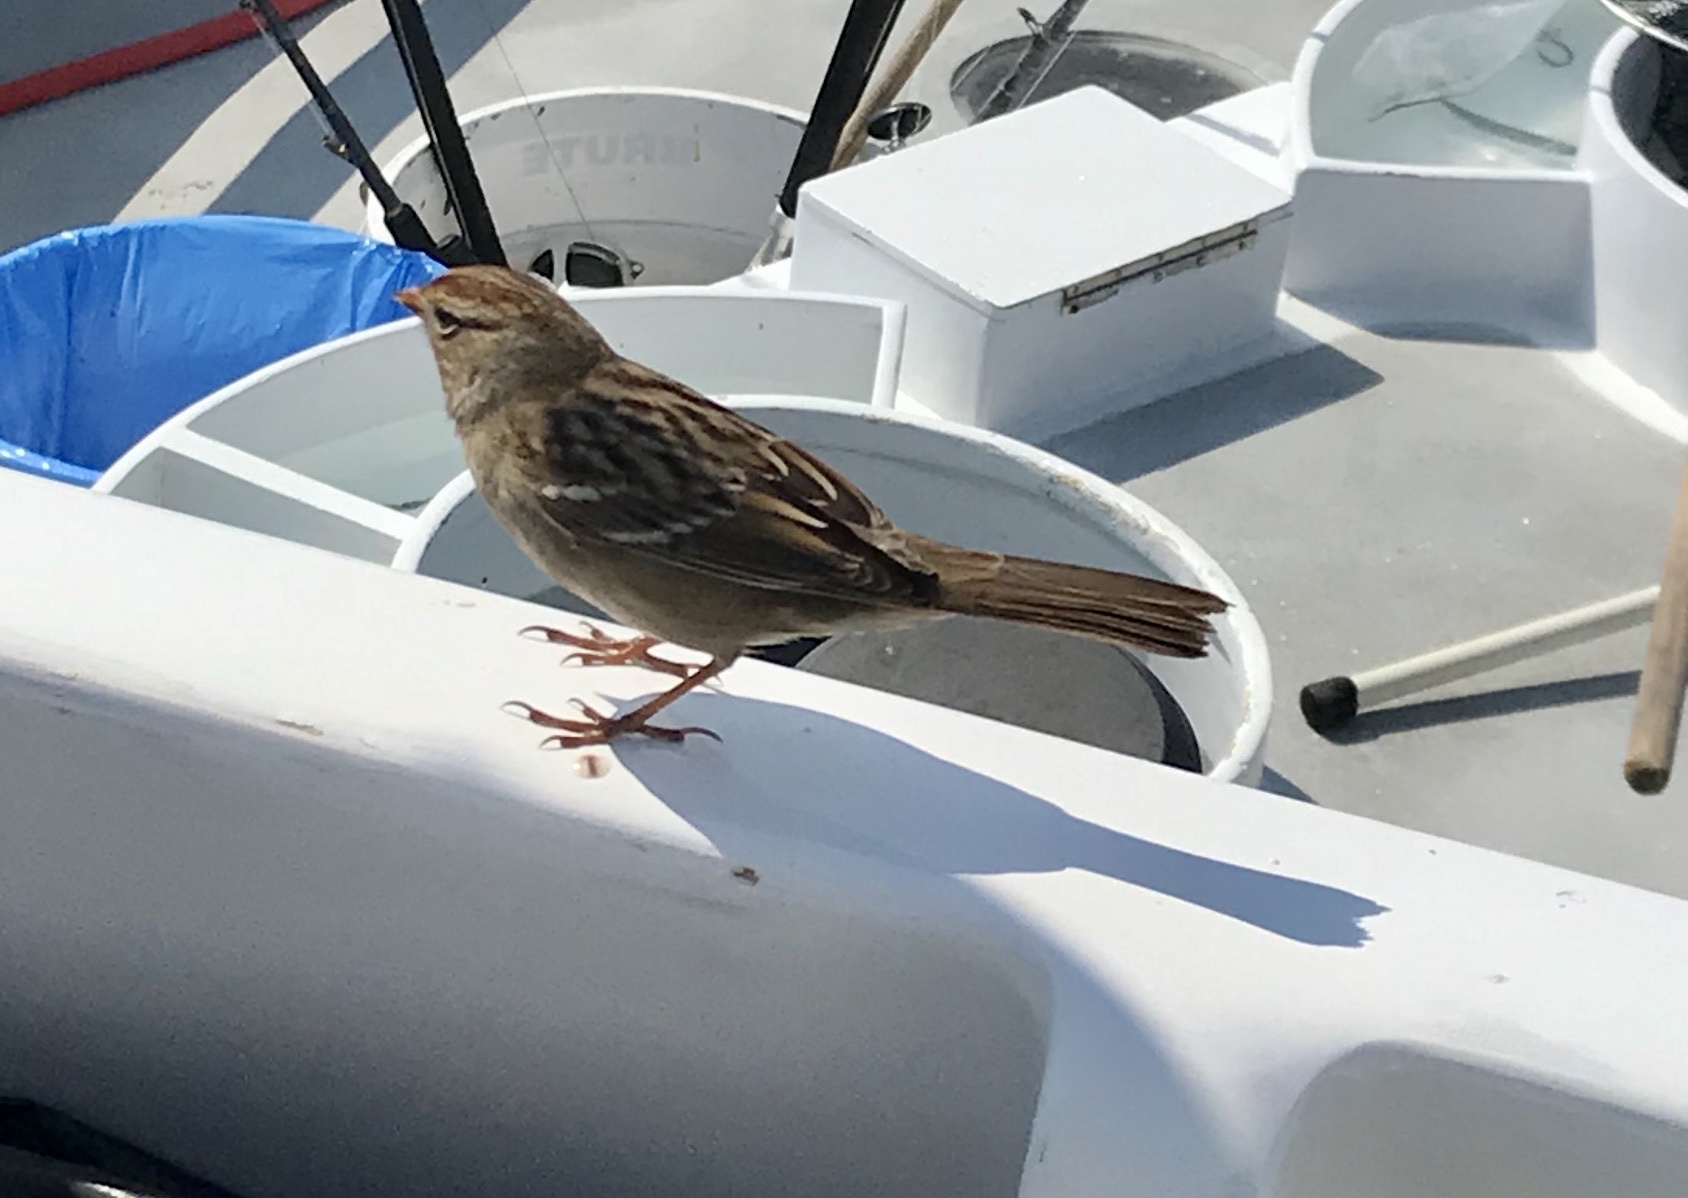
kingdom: Animalia
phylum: Chordata
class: Aves
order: Passeriformes
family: Passerellidae
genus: Zonotrichia
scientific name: Zonotrichia leucophrys
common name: White-crowned sparrow
